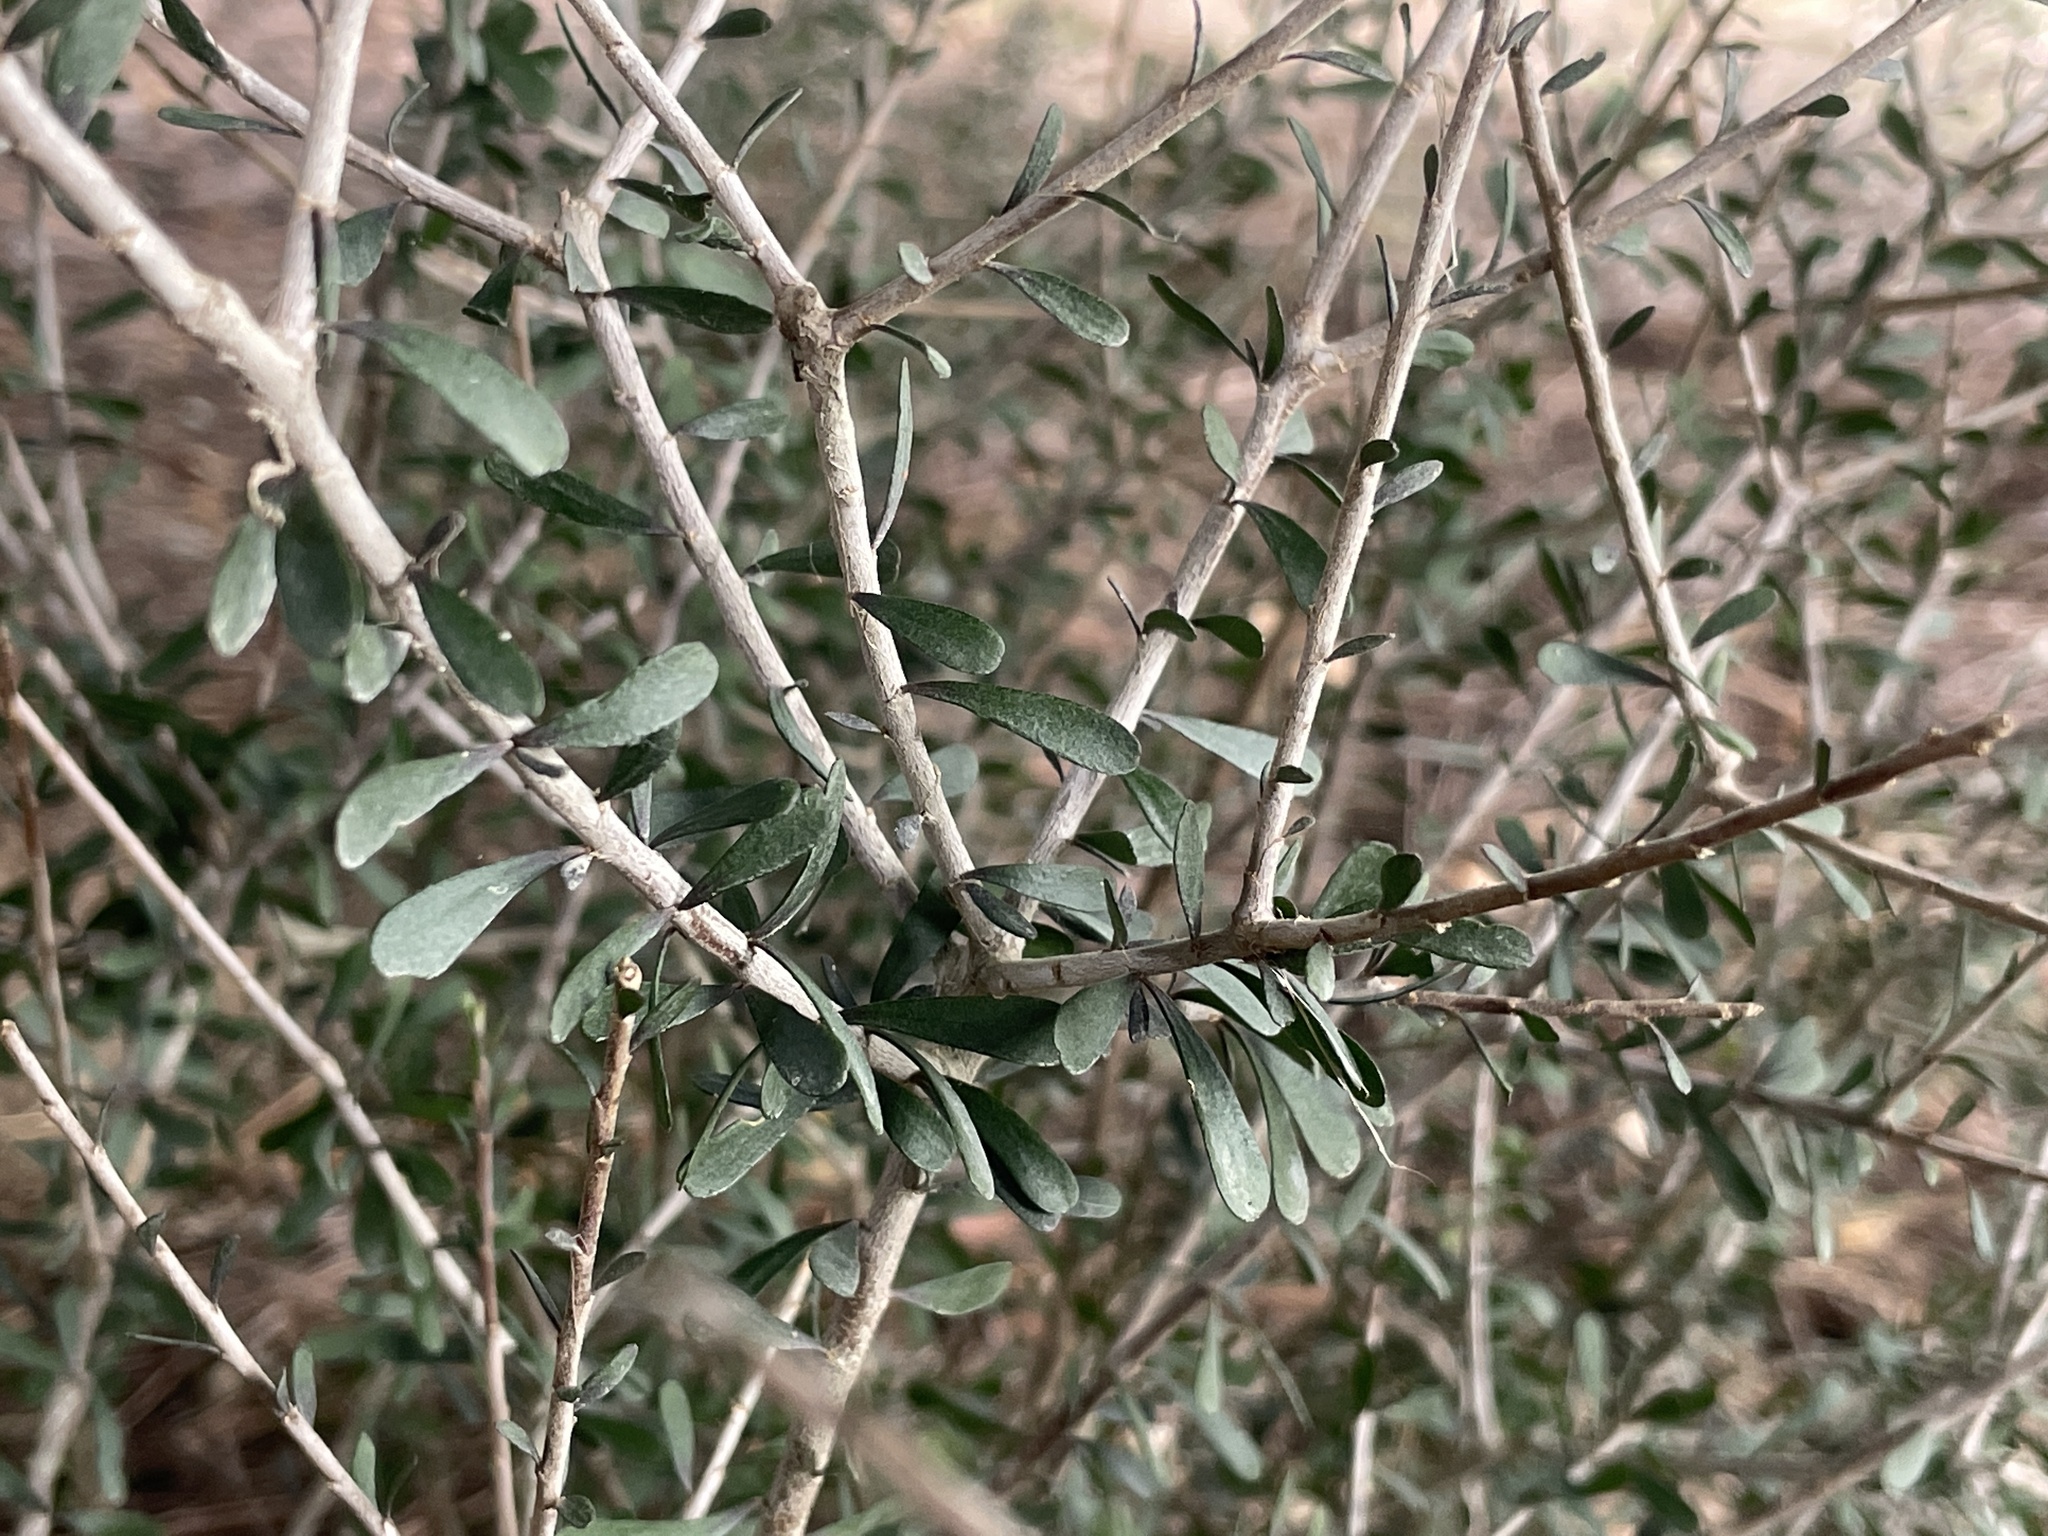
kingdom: Plantae
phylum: Tracheophyta
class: Magnoliopsida
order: Malpighiales
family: Violaceae
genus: Melicytus
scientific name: Melicytus alpinus
